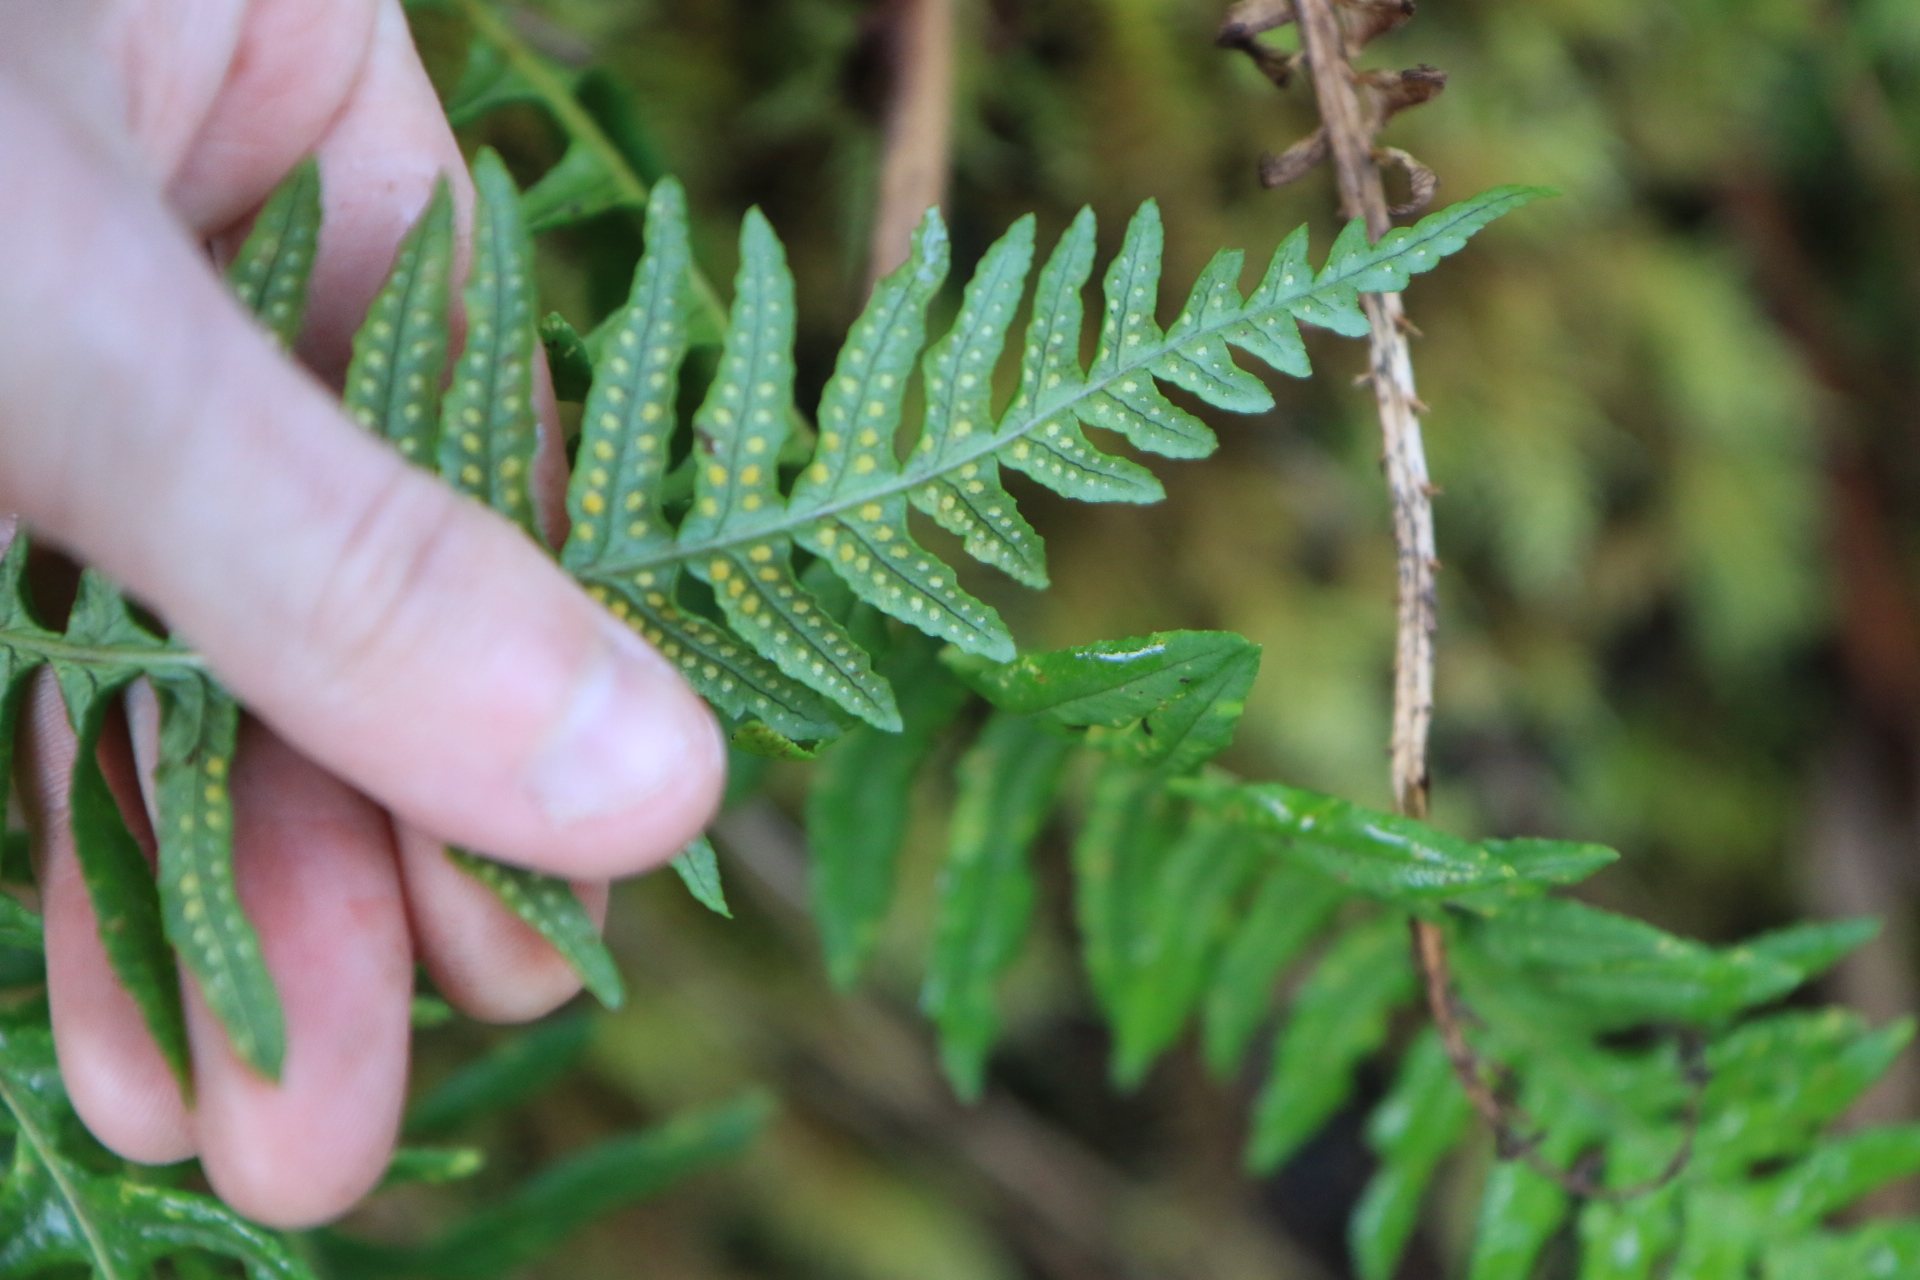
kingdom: Plantae
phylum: Tracheophyta
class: Polypodiopsida
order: Polypodiales
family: Polypodiaceae
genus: Polypodium
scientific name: Polypodium glycyrrhiza
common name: Licorice fern
